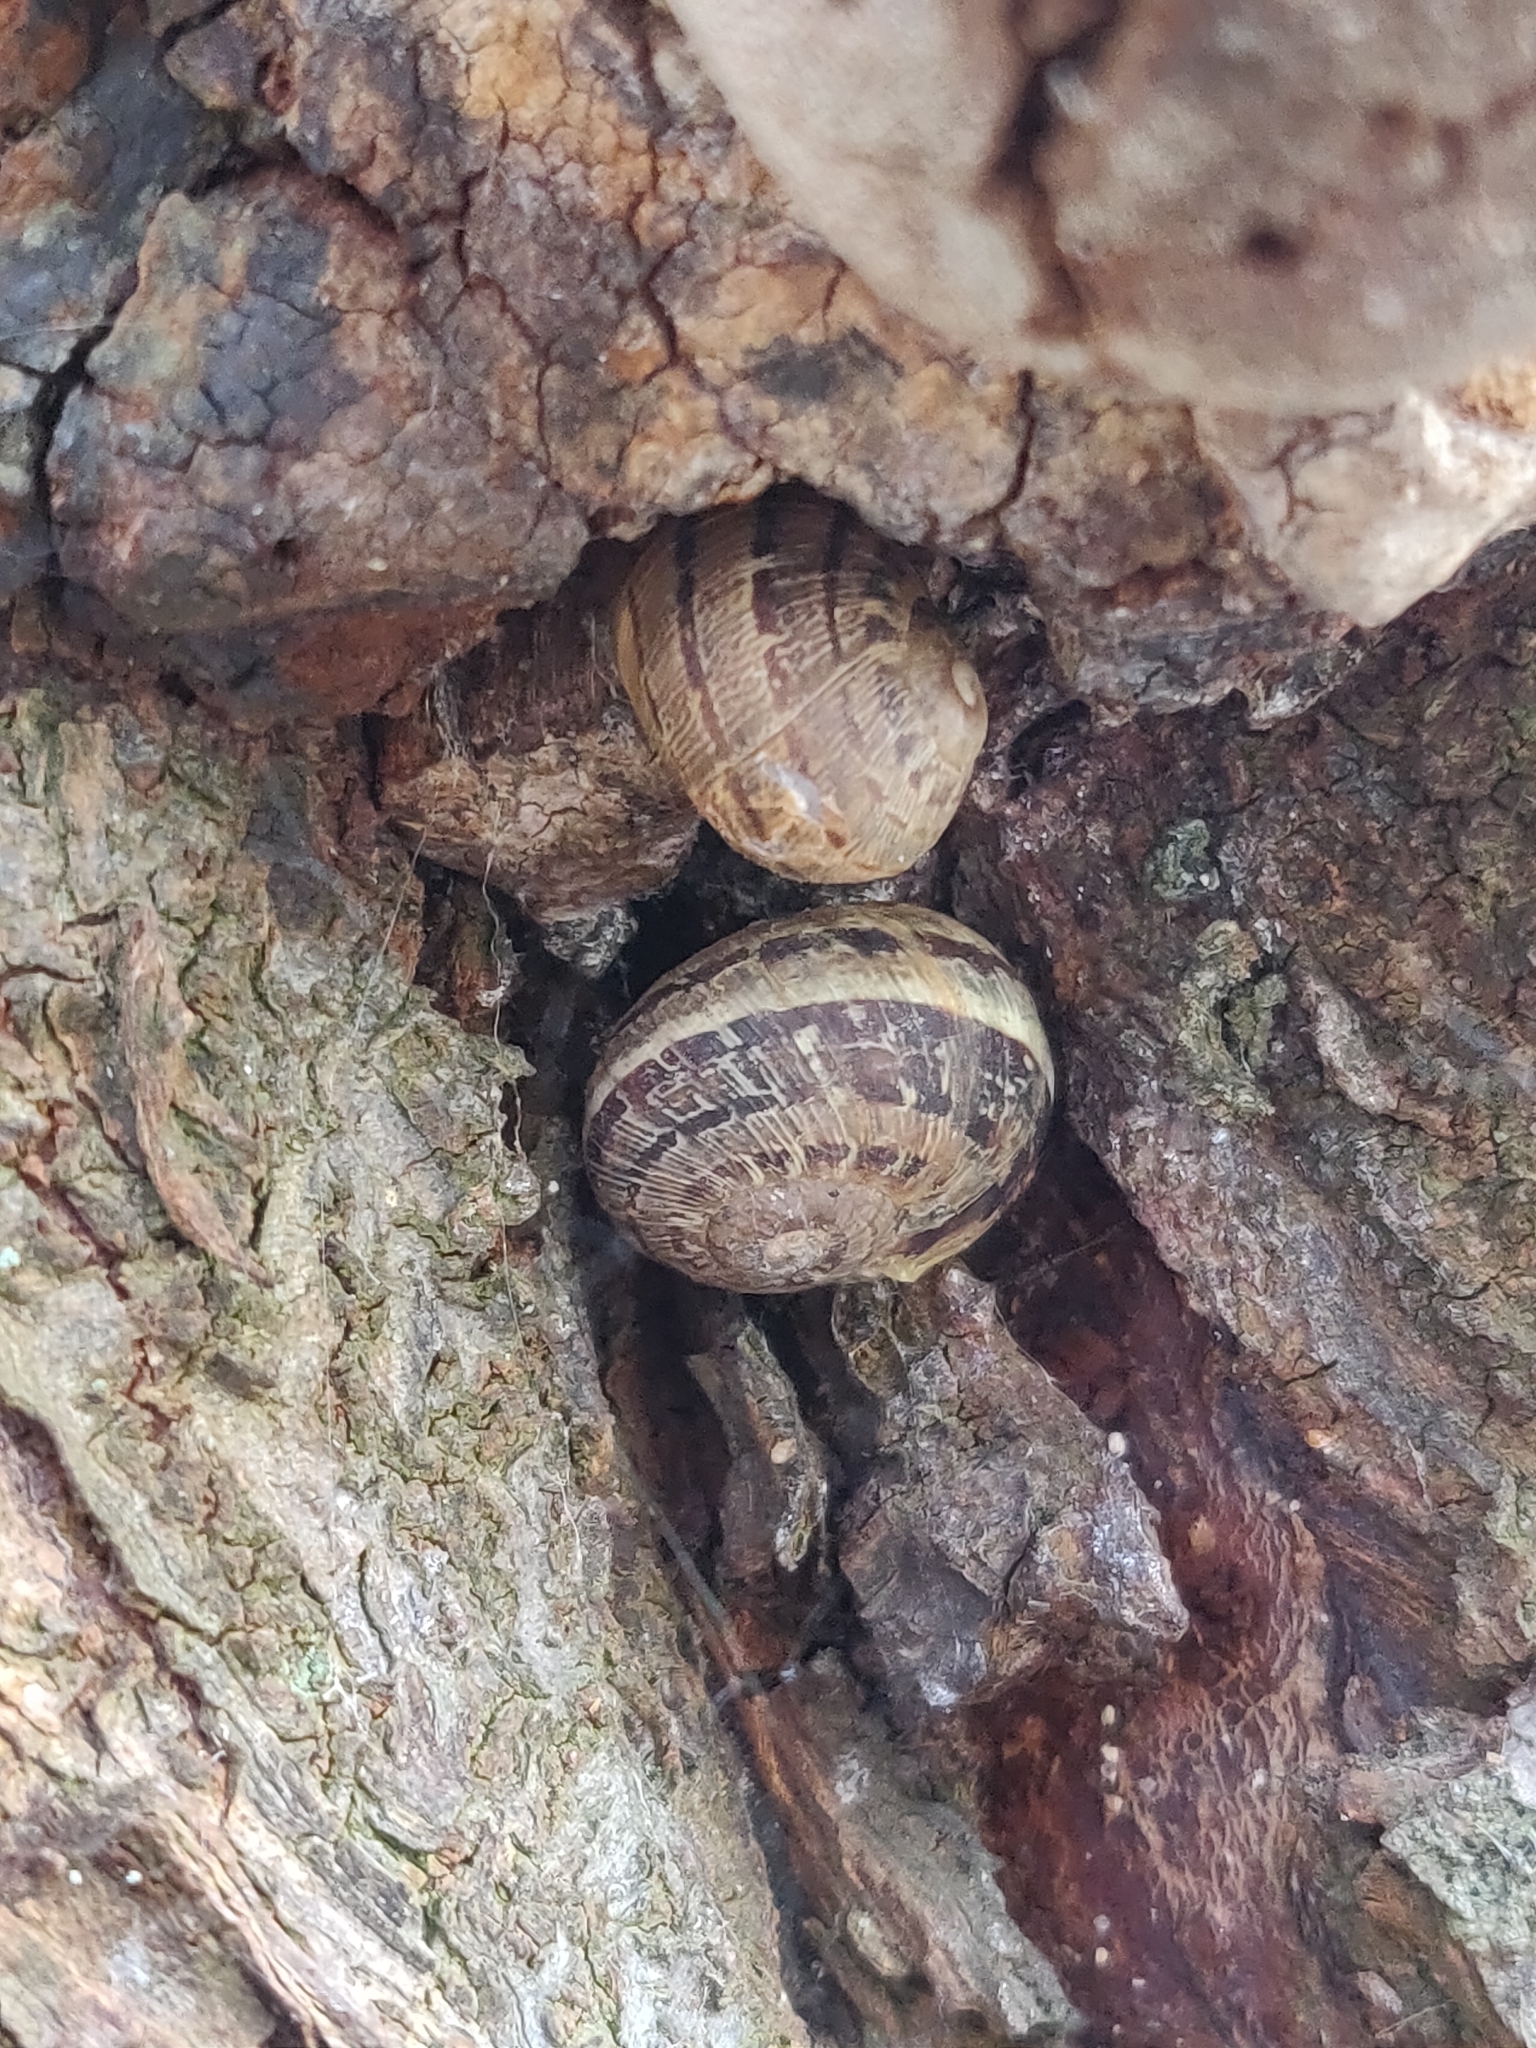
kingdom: Animalia
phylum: Mollusca
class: Gastropoda
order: Stylommatophora
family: Helicidae
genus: Cornu
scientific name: Cornu aspersum
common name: Brown garden snail
